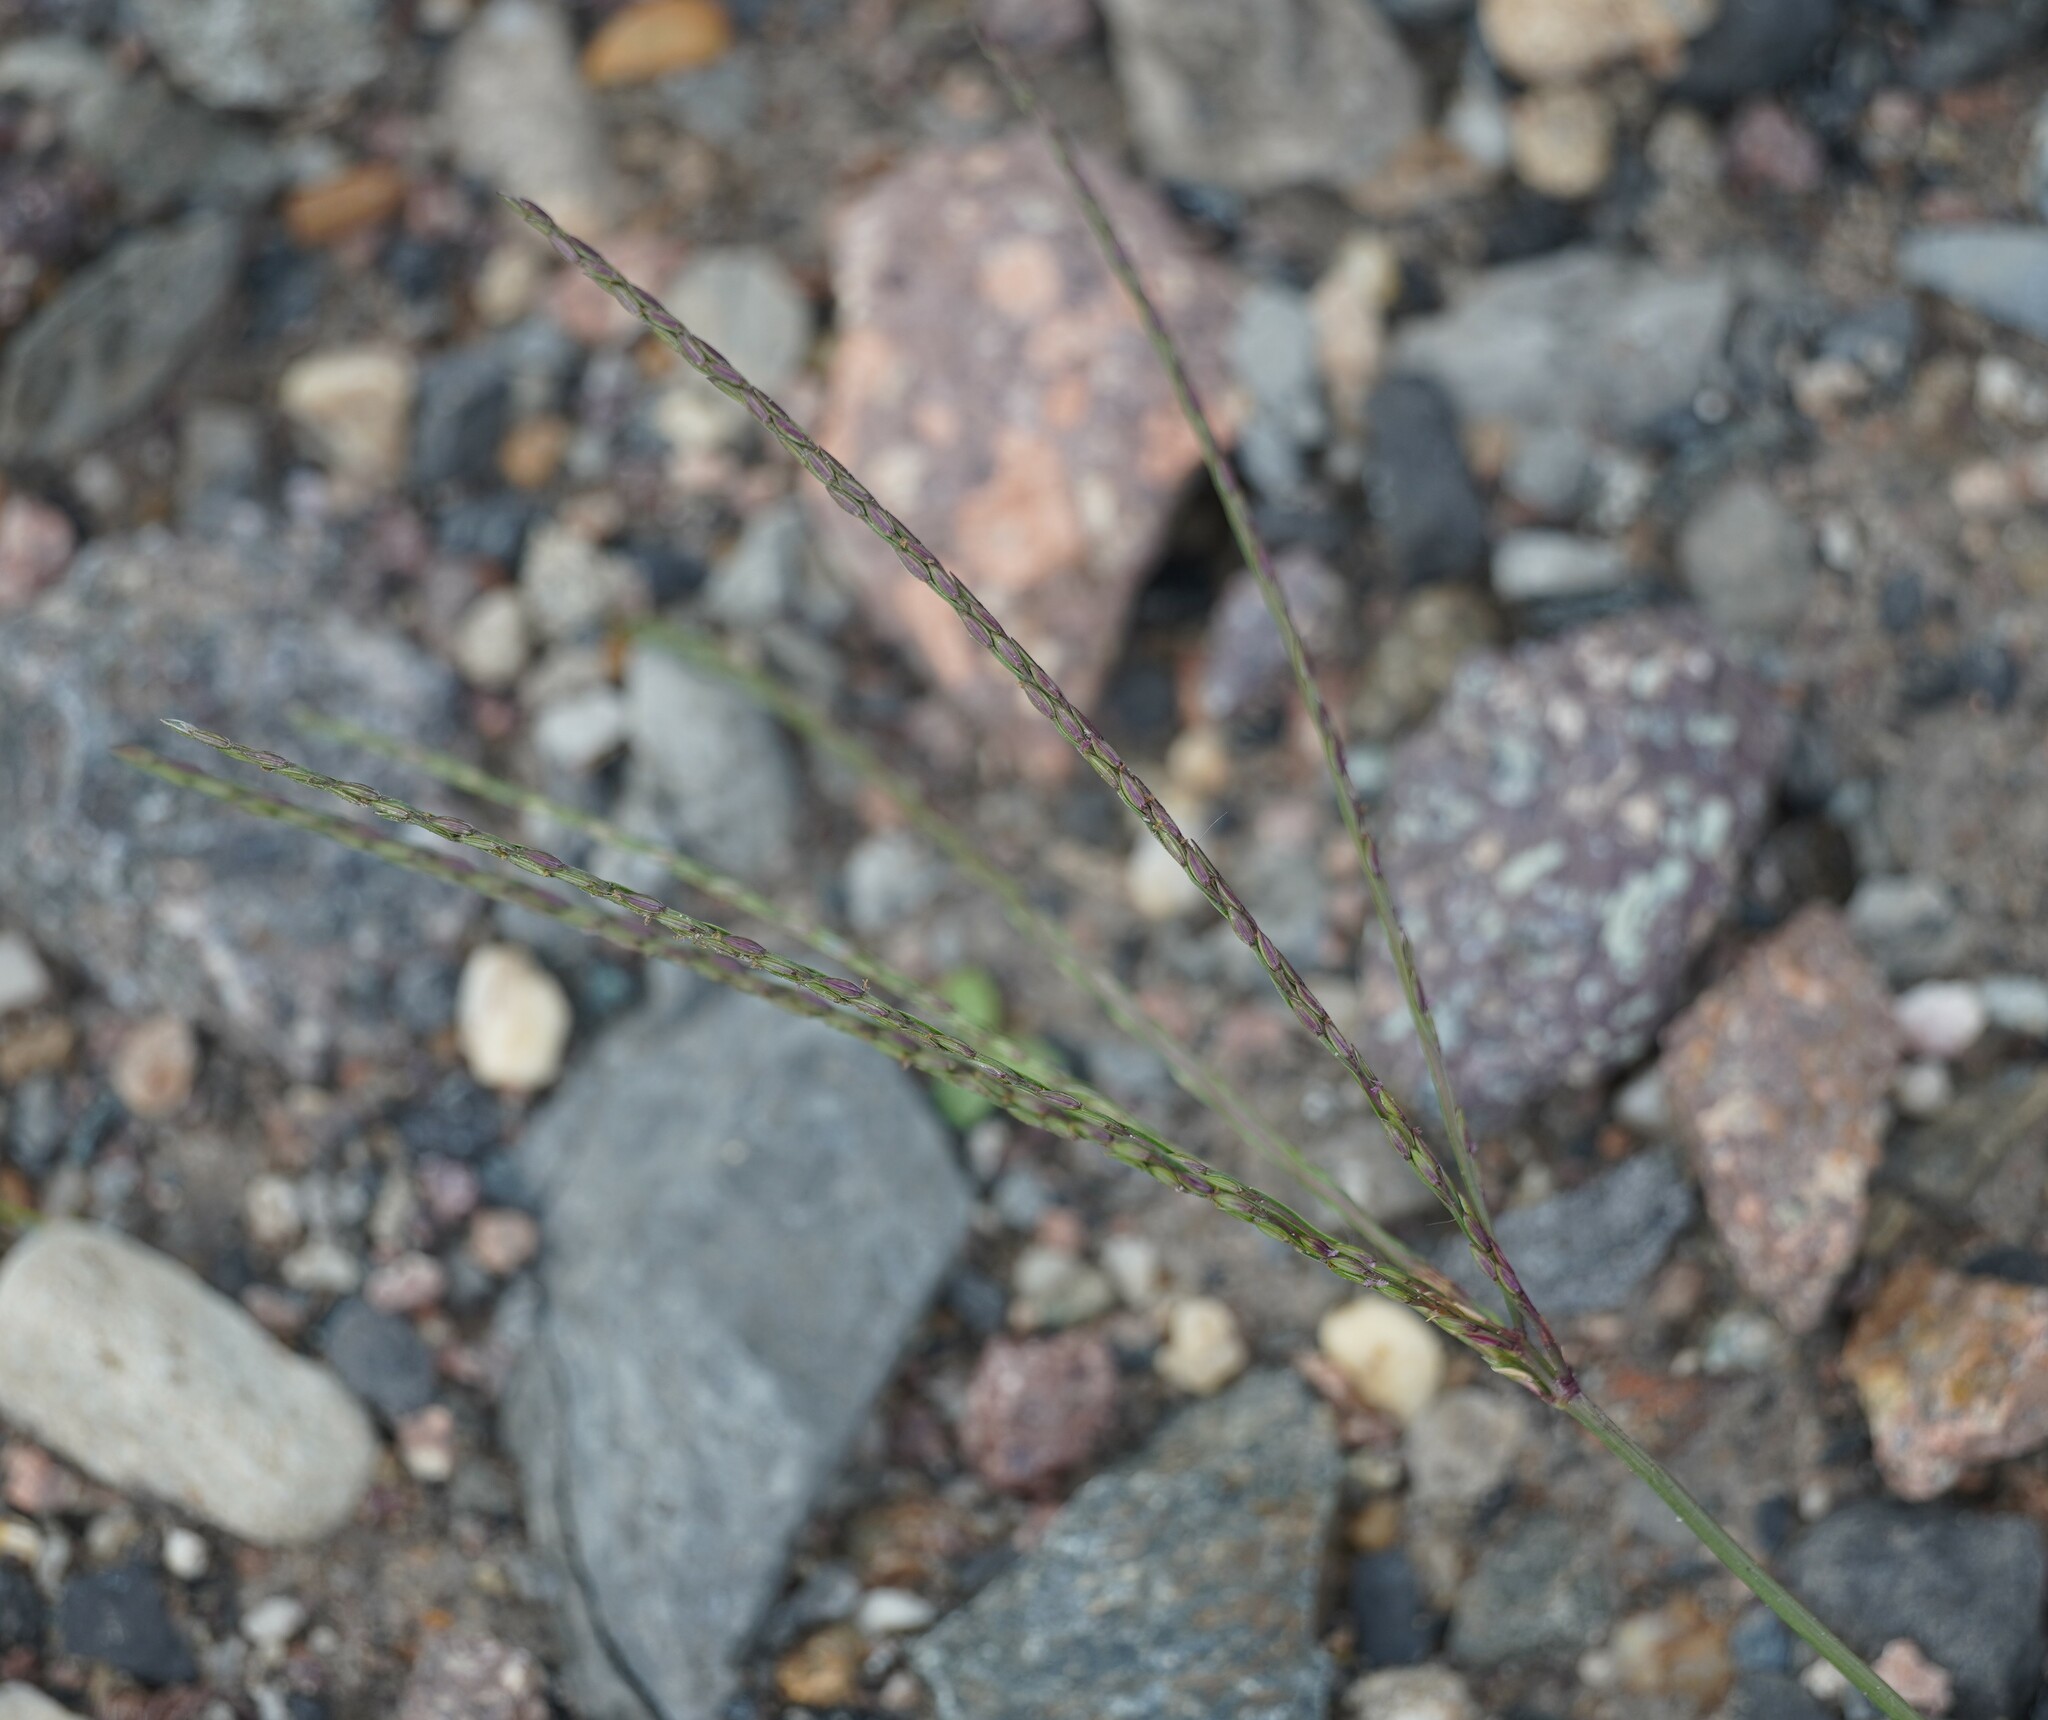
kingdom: Plantae
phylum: Tracheophyta
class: Liliopsida
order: Poales
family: Poaceae
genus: Digitaria
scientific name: Digitaria sanguinalis
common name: Hairy crabgrass
